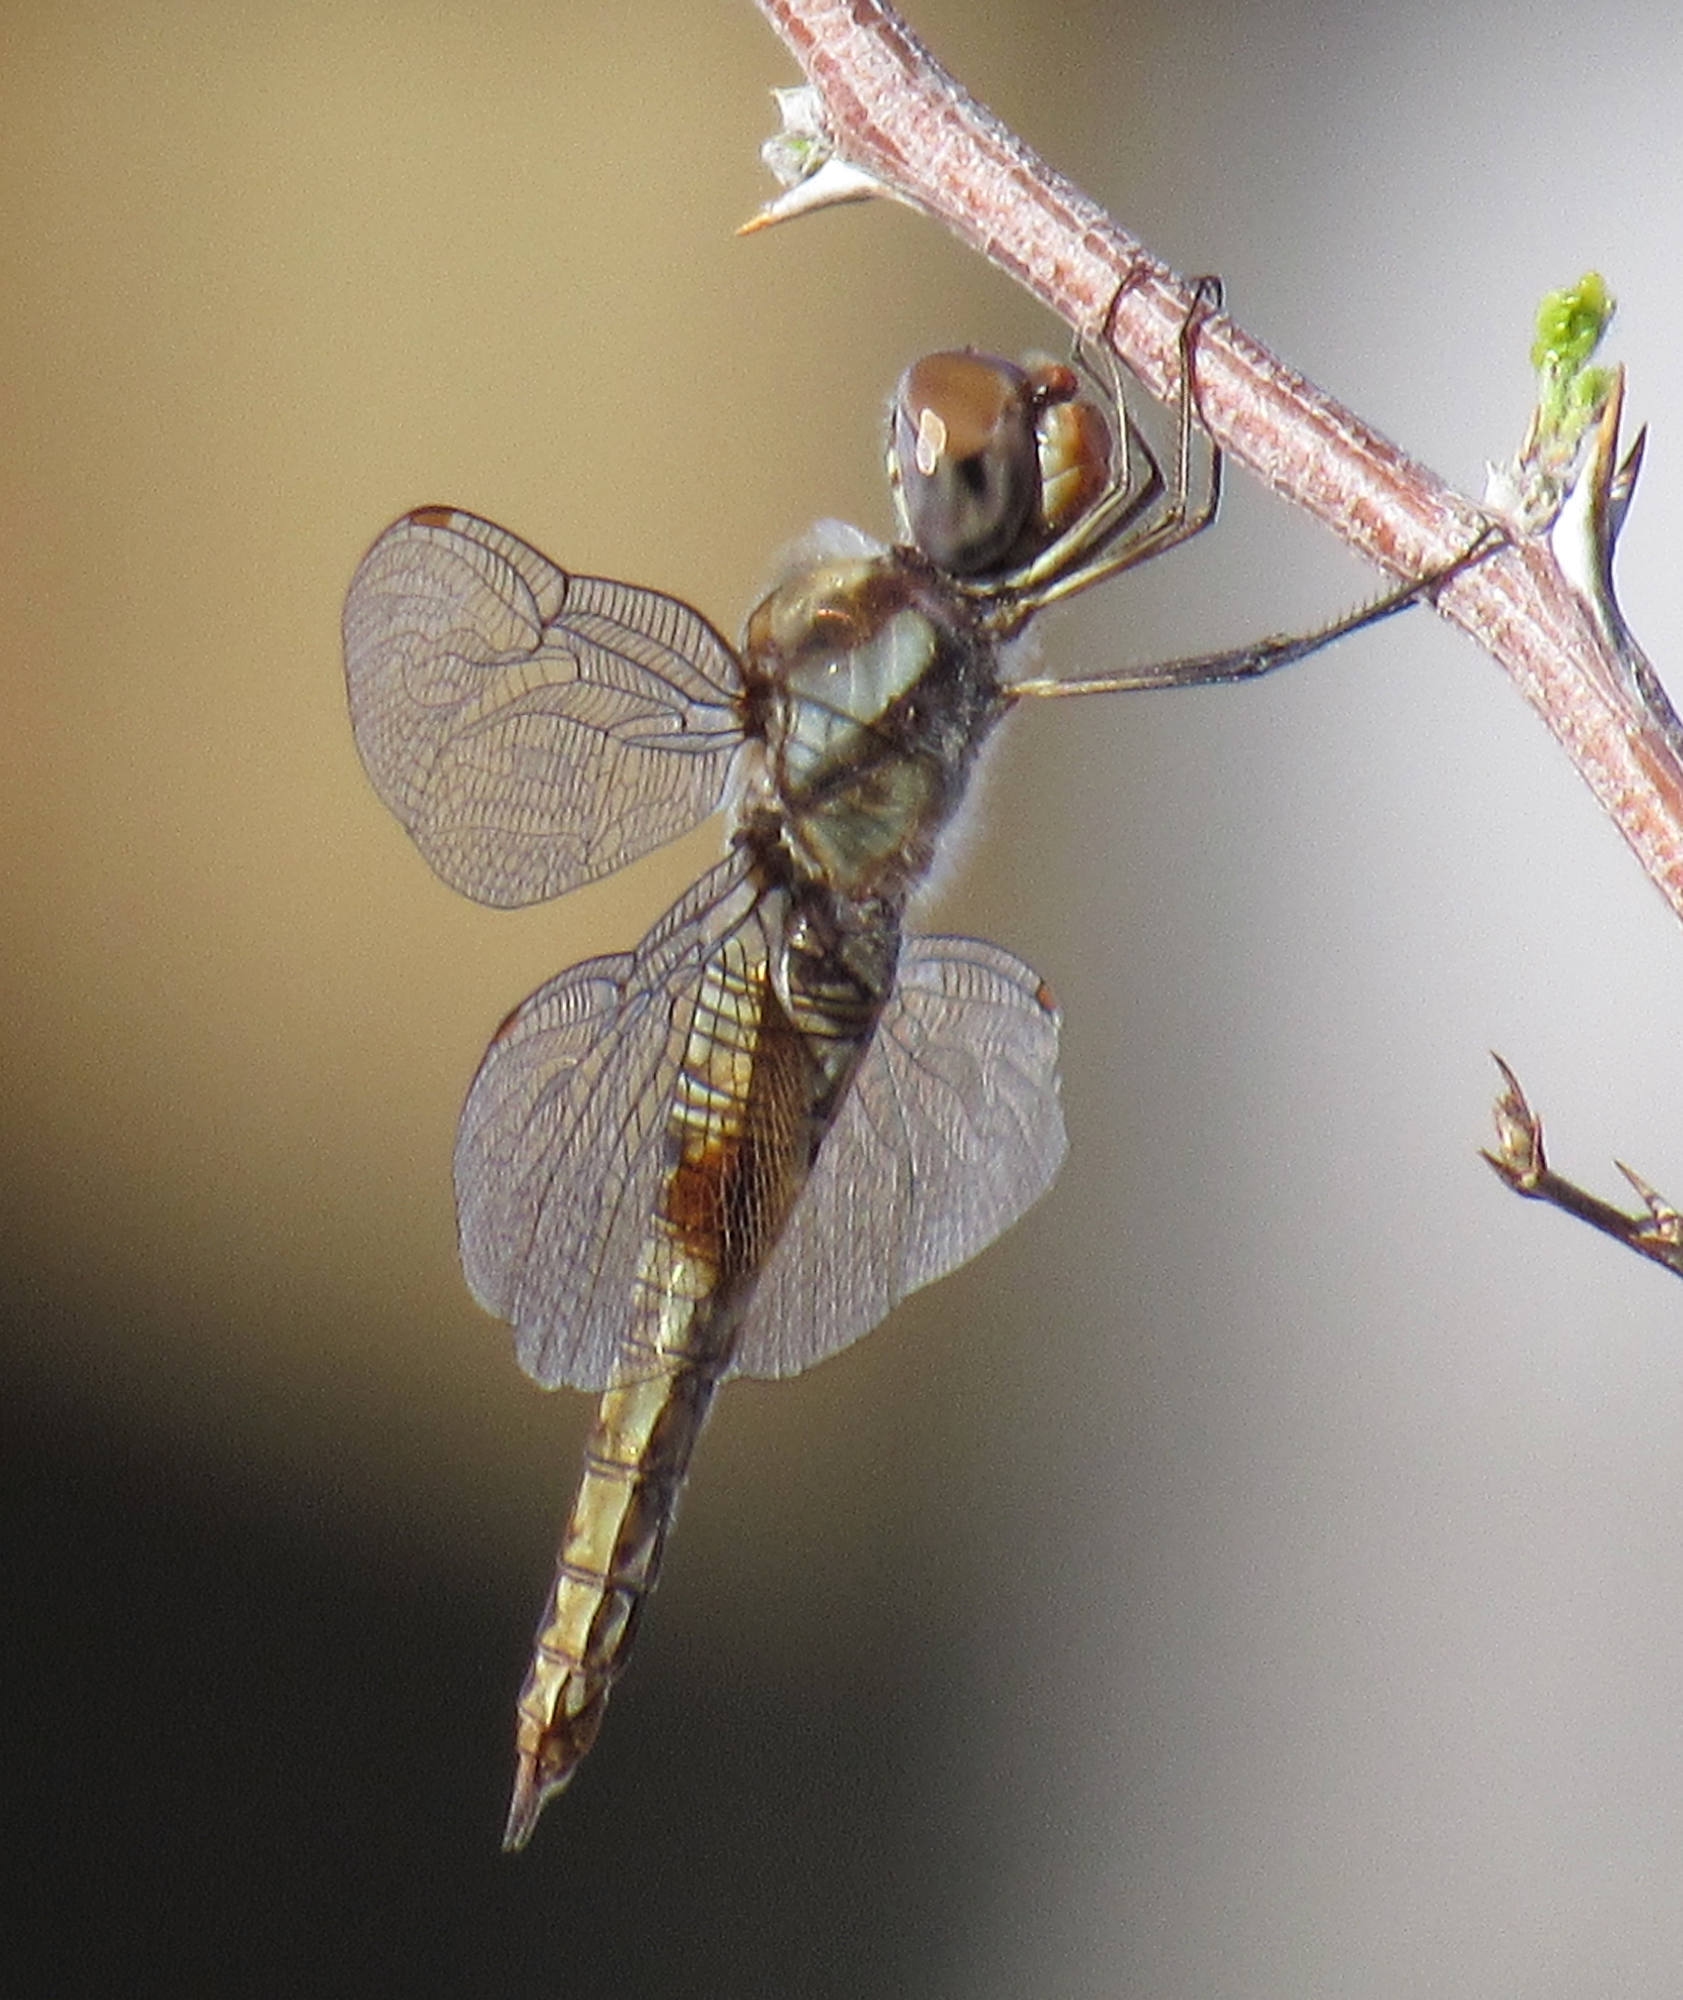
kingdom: Animalia
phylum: Arthropoda
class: Insecta
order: Odonata
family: Libellulidae
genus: Pantala
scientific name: Pantala hymenaea
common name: Spot-winged glider
